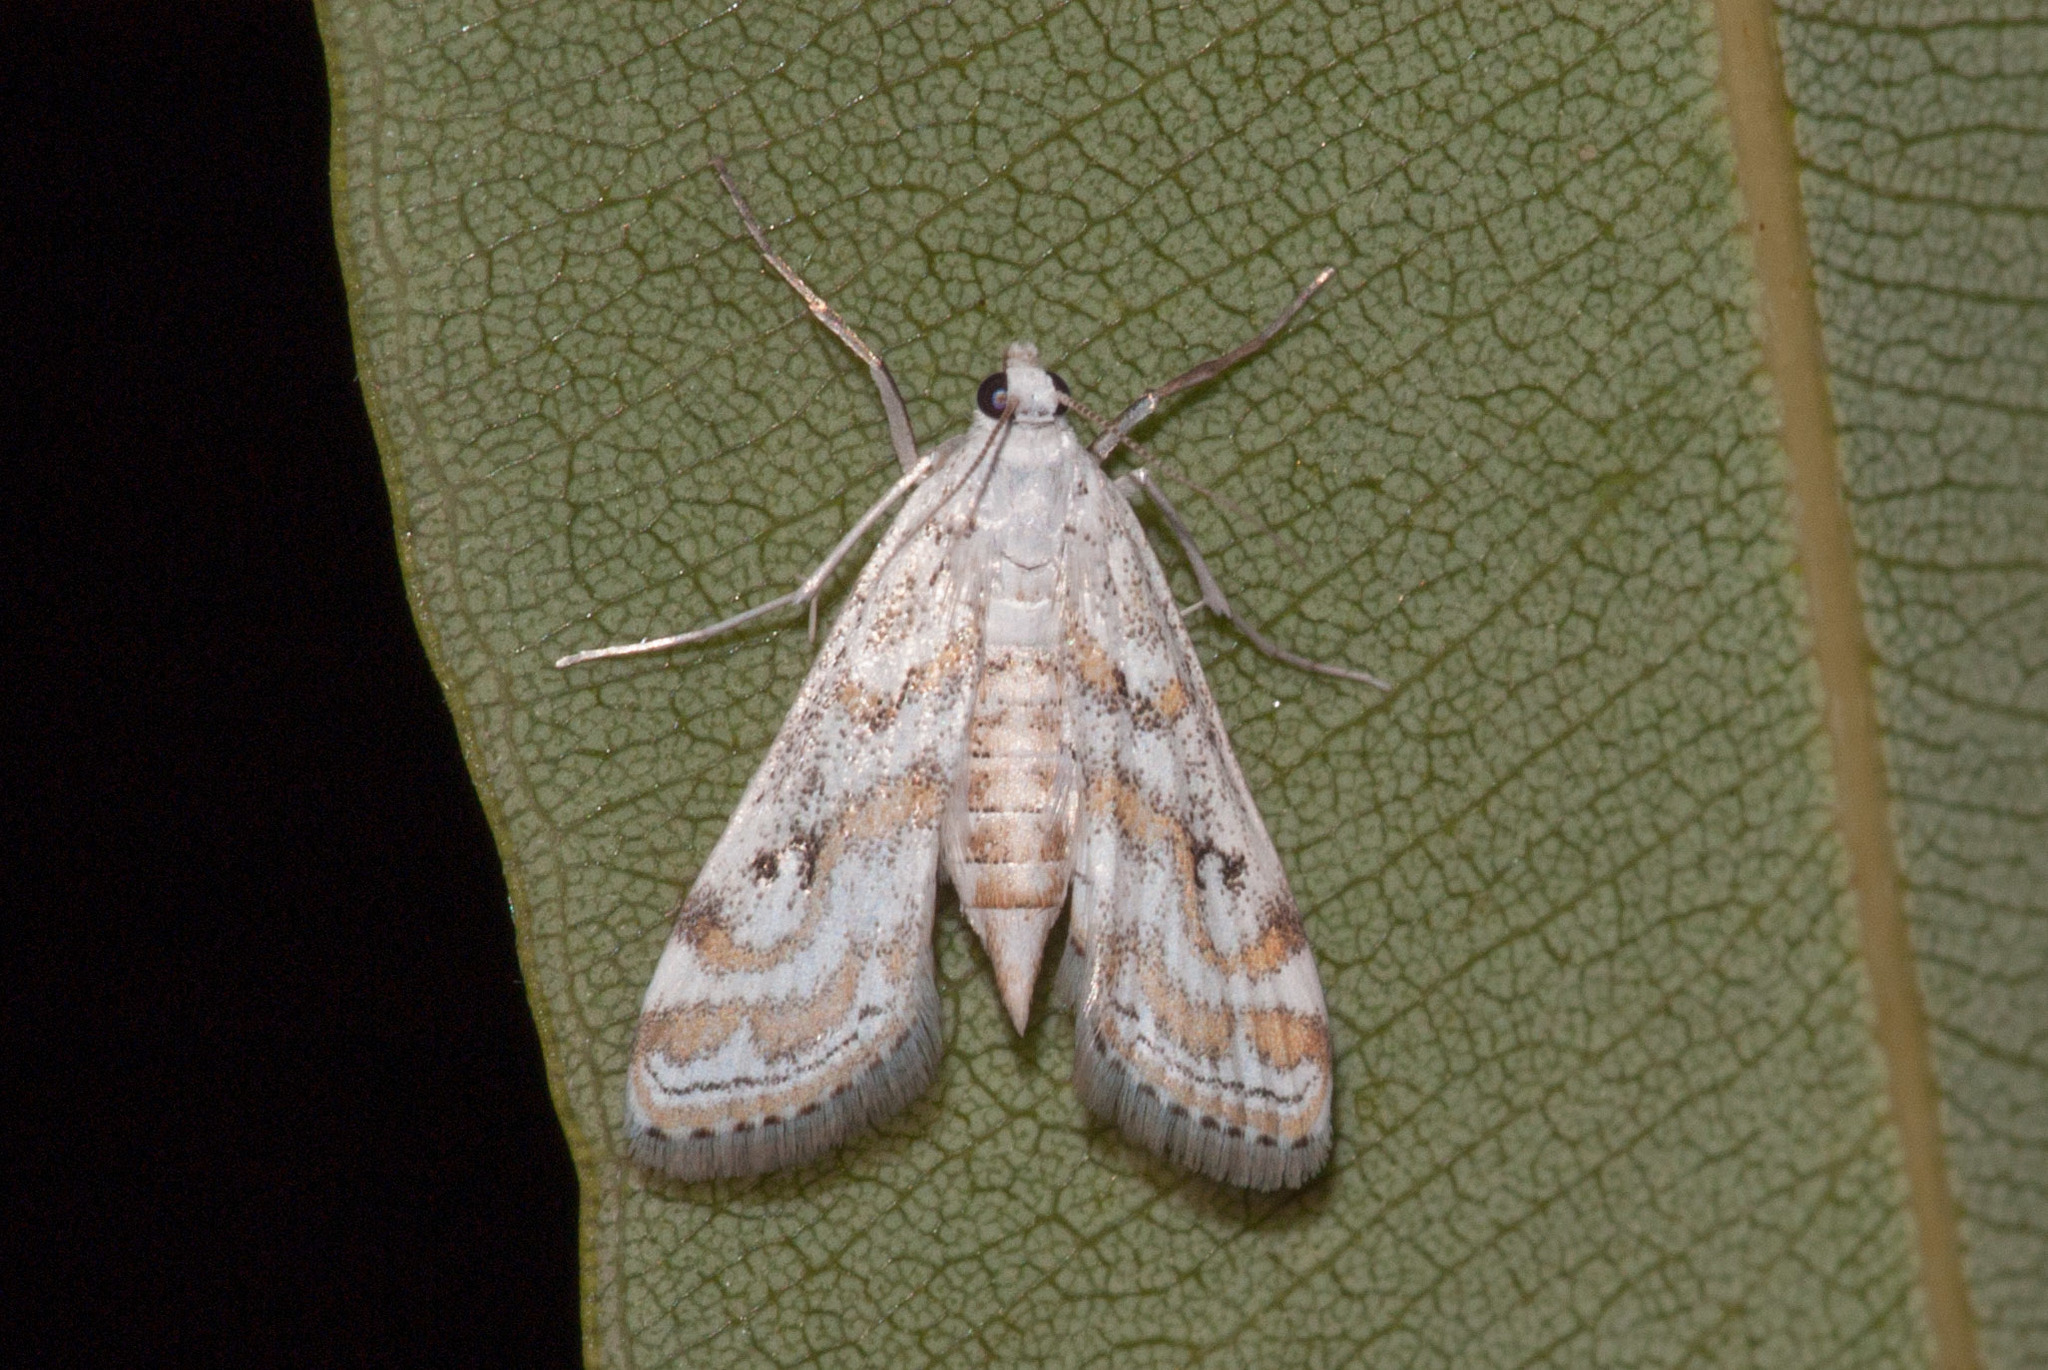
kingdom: Animalia
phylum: Arthropoda
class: Insecta
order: Lepidoptera
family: Crambidae
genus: Parapoynx
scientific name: Parapoynx diminutalis
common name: Hydrilla leafcutter
